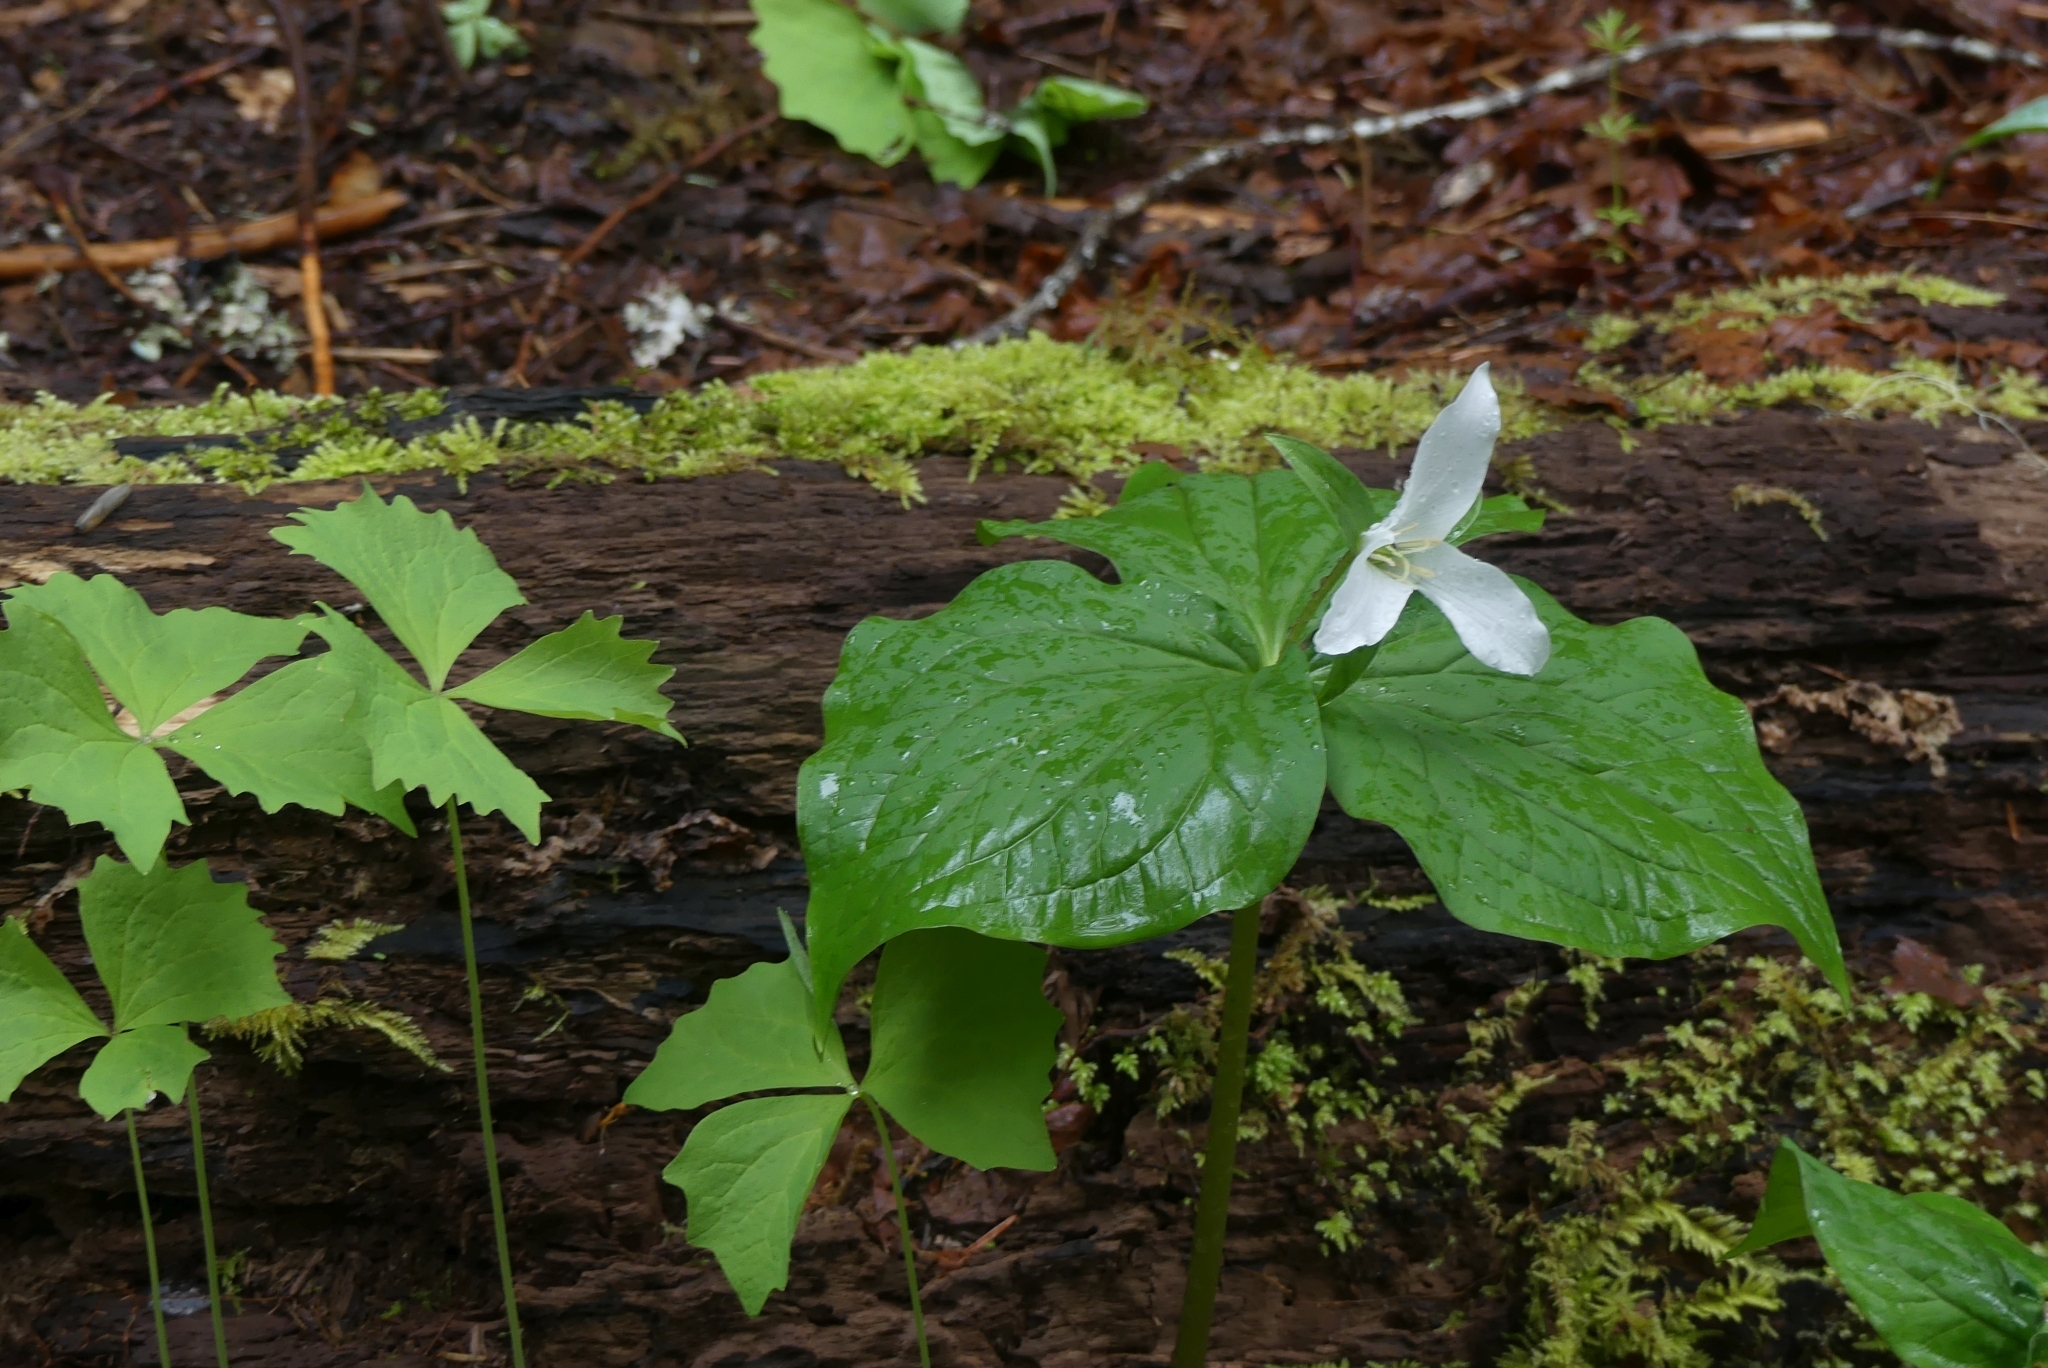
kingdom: Plantae
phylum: Tracheophyta
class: Liliopsida
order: Liliales
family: Melanthiaceae
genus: Trillium
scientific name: Trillium ovatum
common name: Pacific trillium
